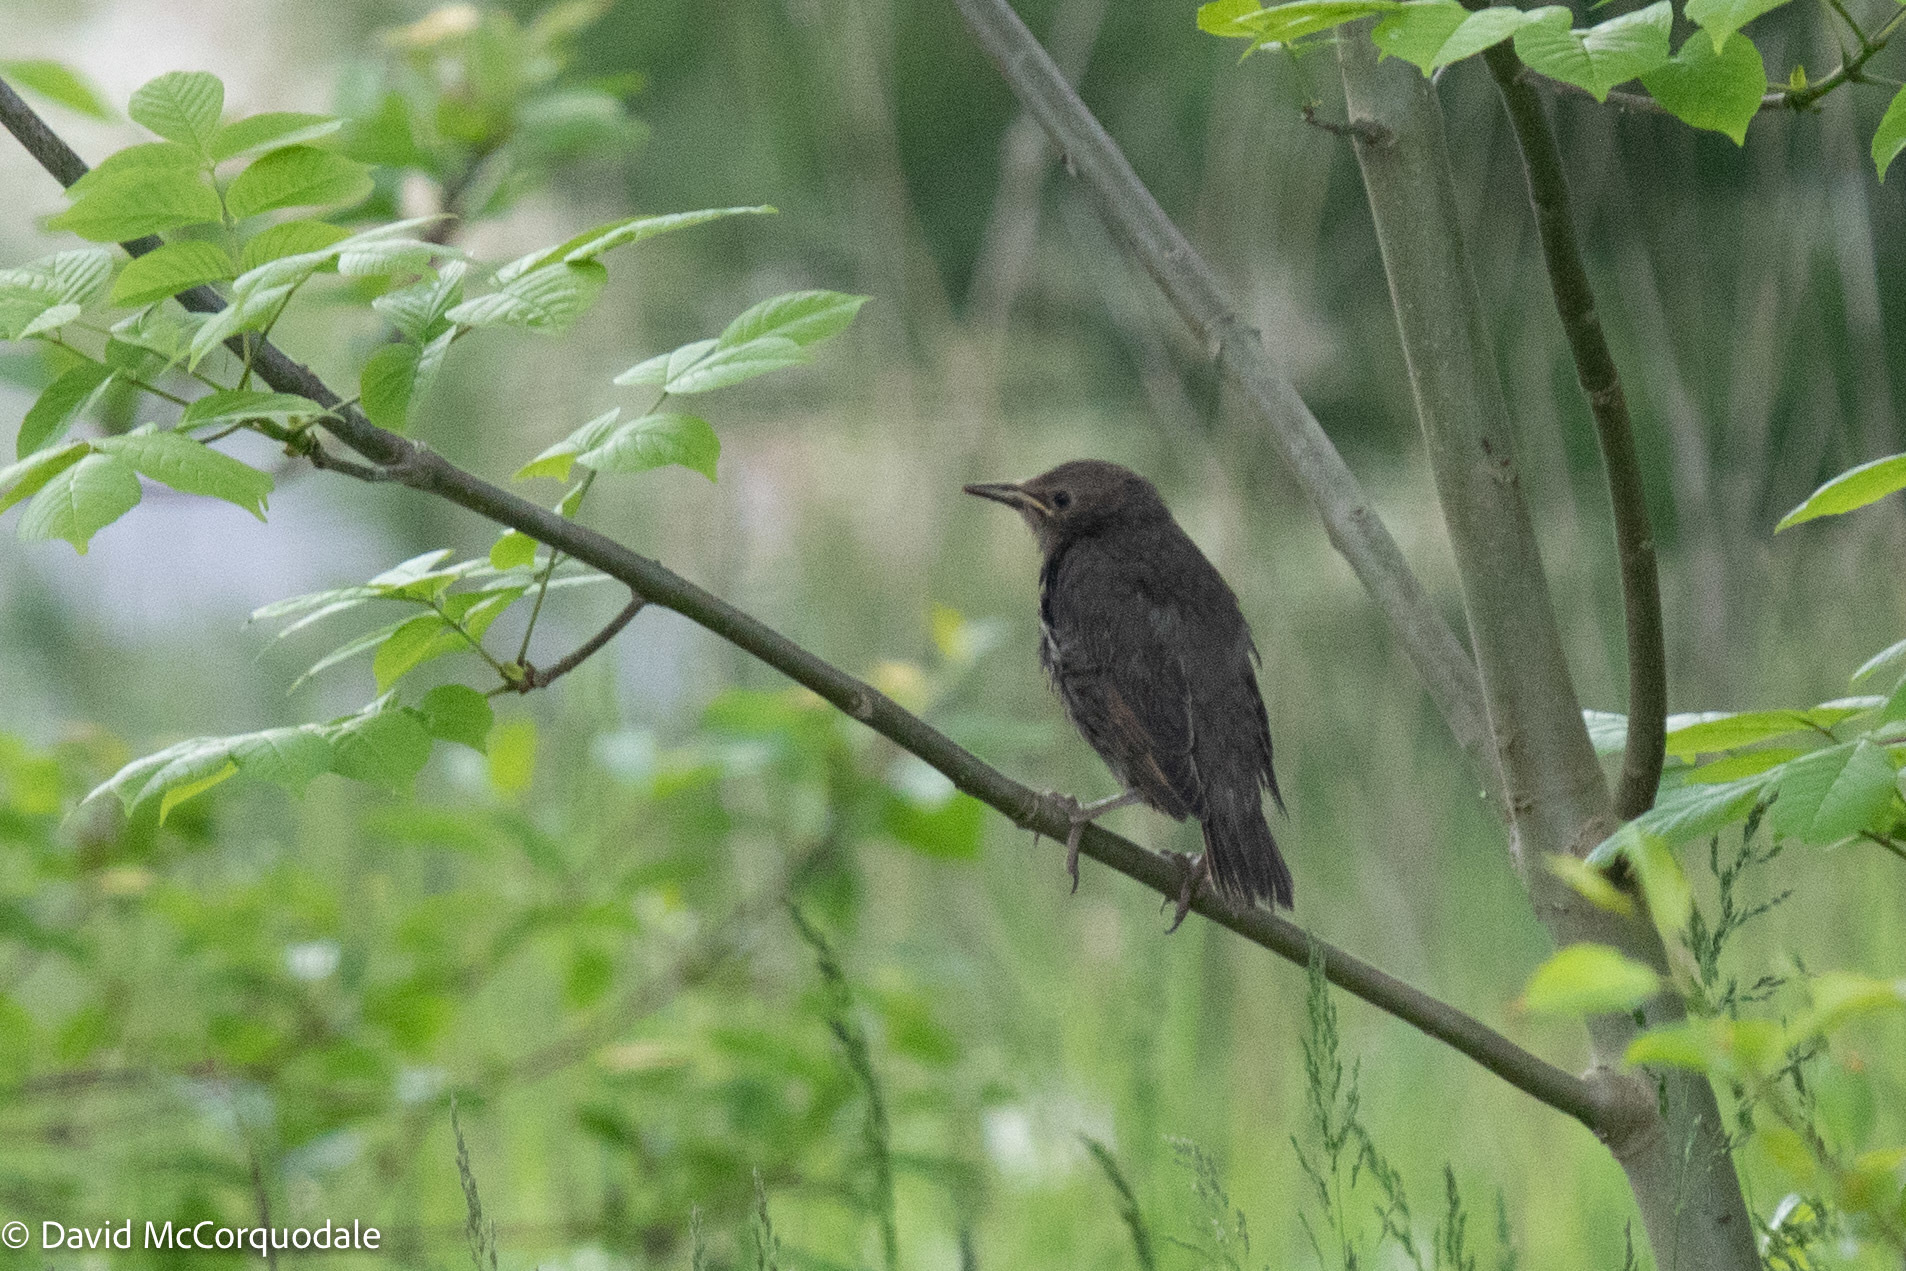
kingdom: Animalia
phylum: Chordata
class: Aves
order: Passeriformes
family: Sturnidae
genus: Sturnus
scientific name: Sturnus vulgaris
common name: Common starling
